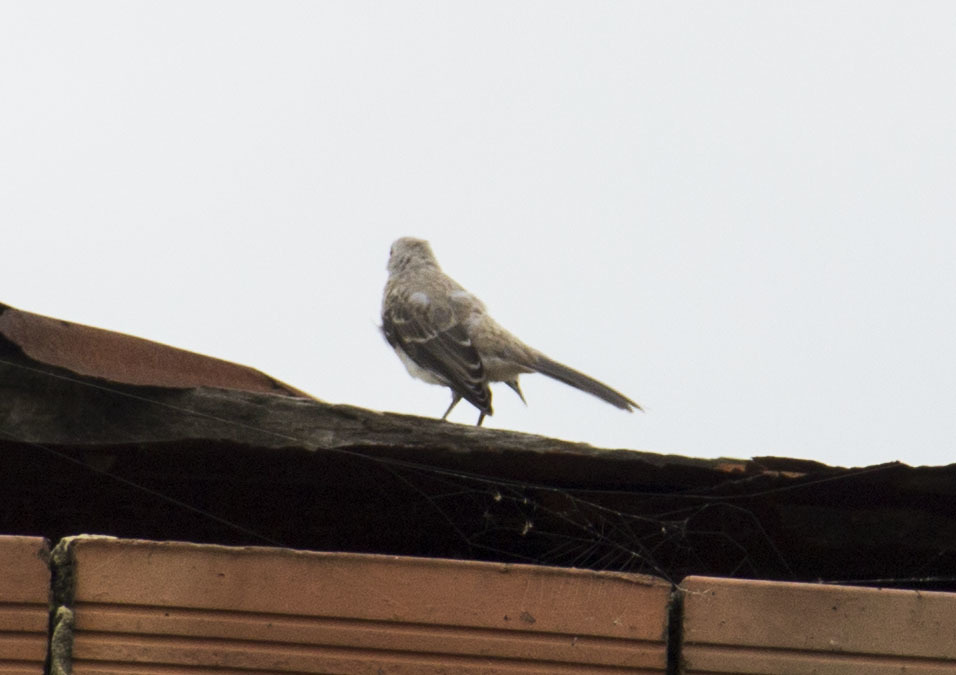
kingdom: Animalia
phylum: Chordata
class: Aves
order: Passeriformes
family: Mimidae
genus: Mimus
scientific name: Mimus gilvus
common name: Tropical mockingbird
